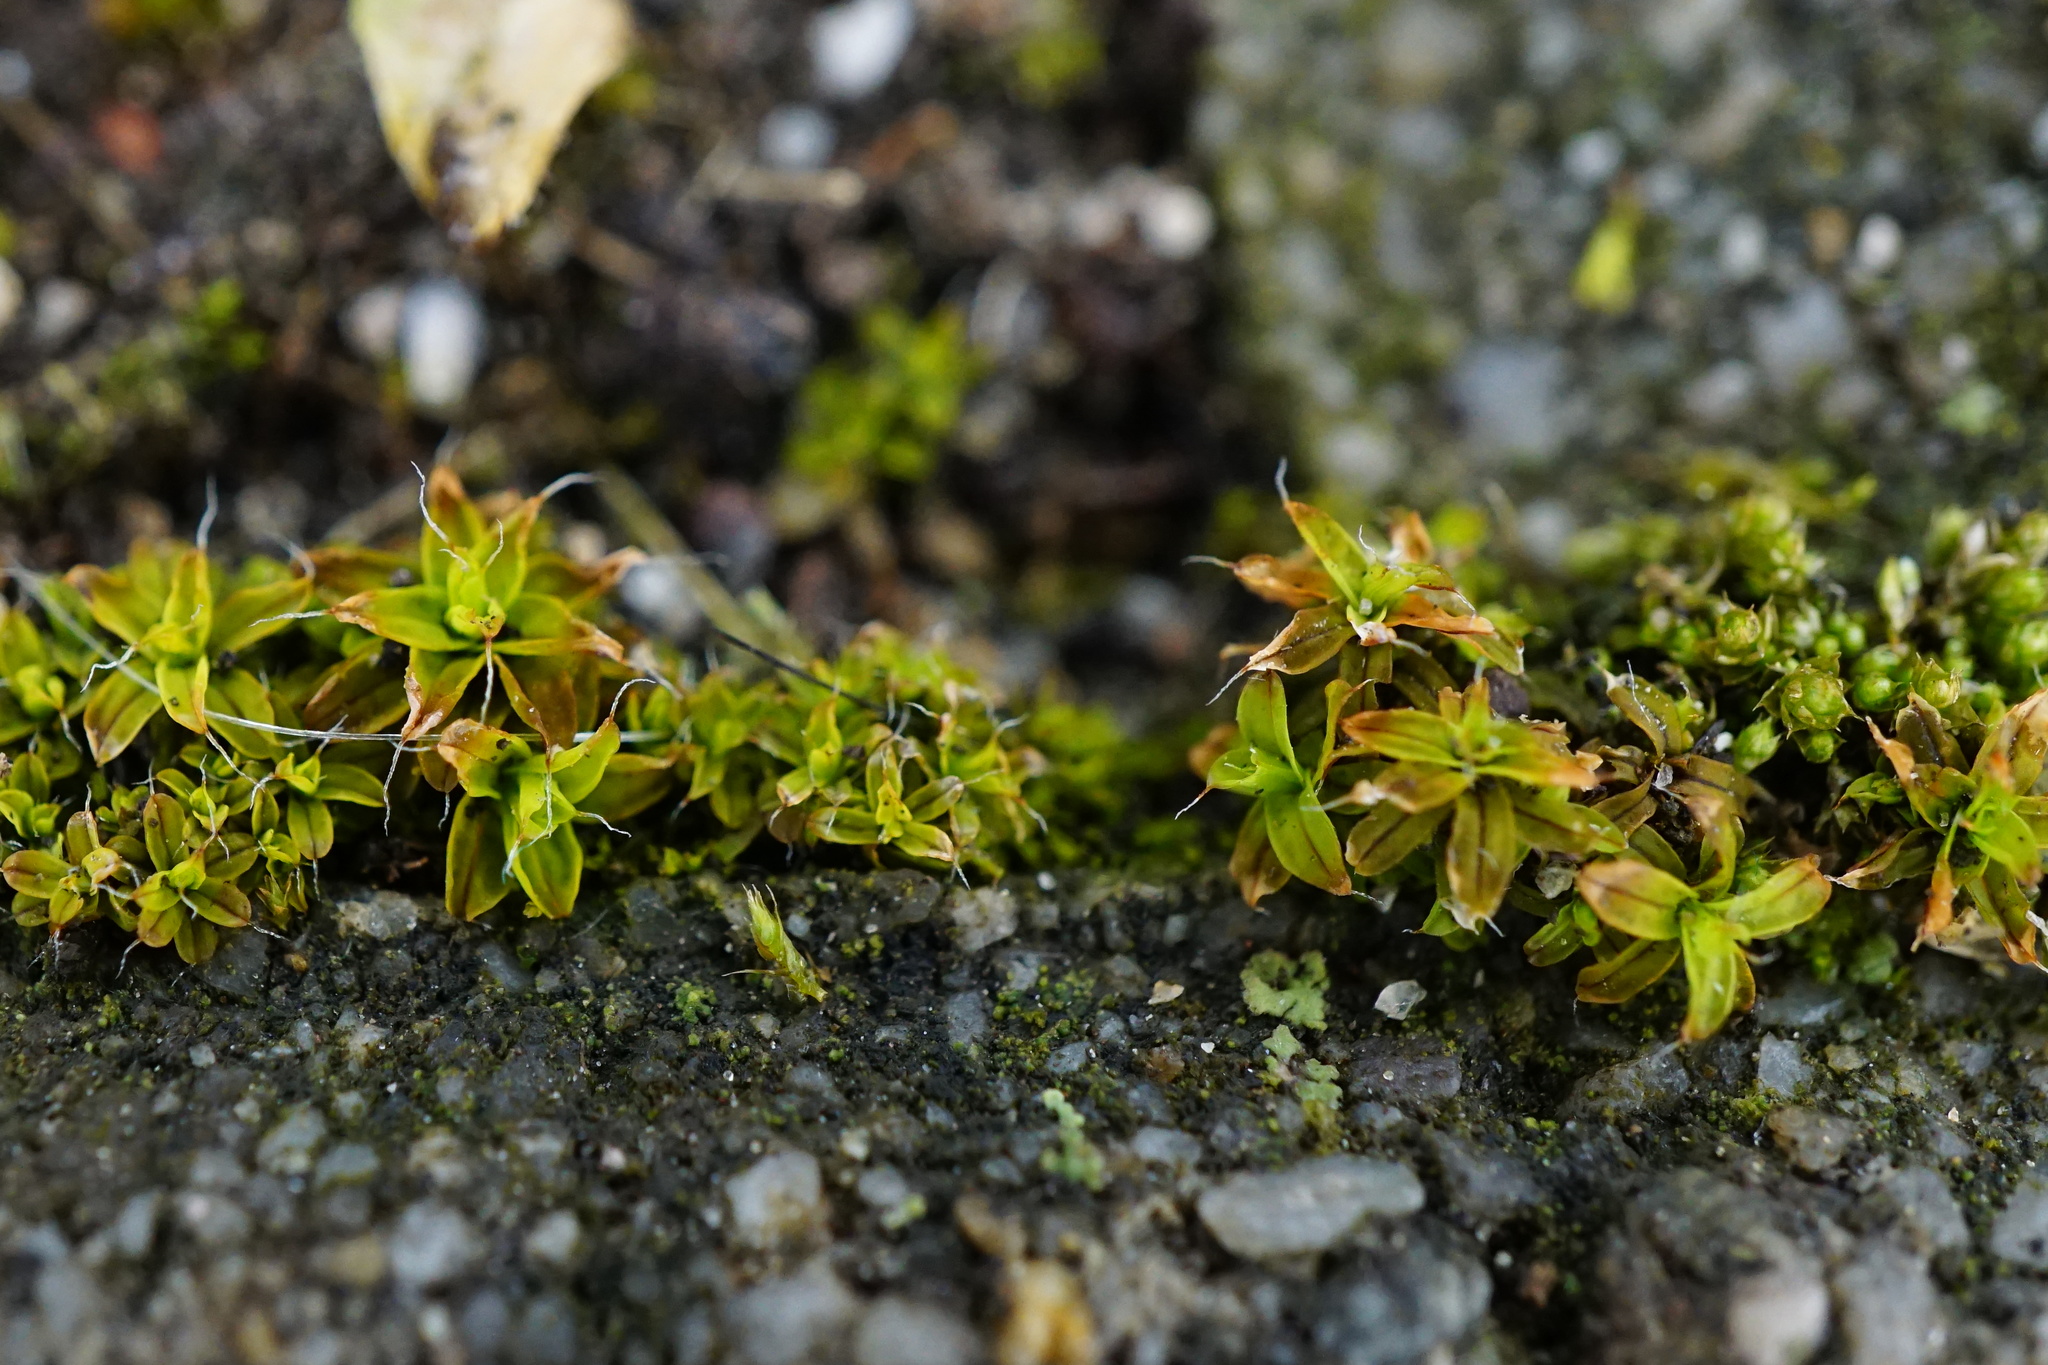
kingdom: Plantae
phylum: Bryophyta
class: Bryopsida
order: Pottiales
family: Pottiaceae
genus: Syntrichia
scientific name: Syntrichia ruralis
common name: Sidewalk screw moss
